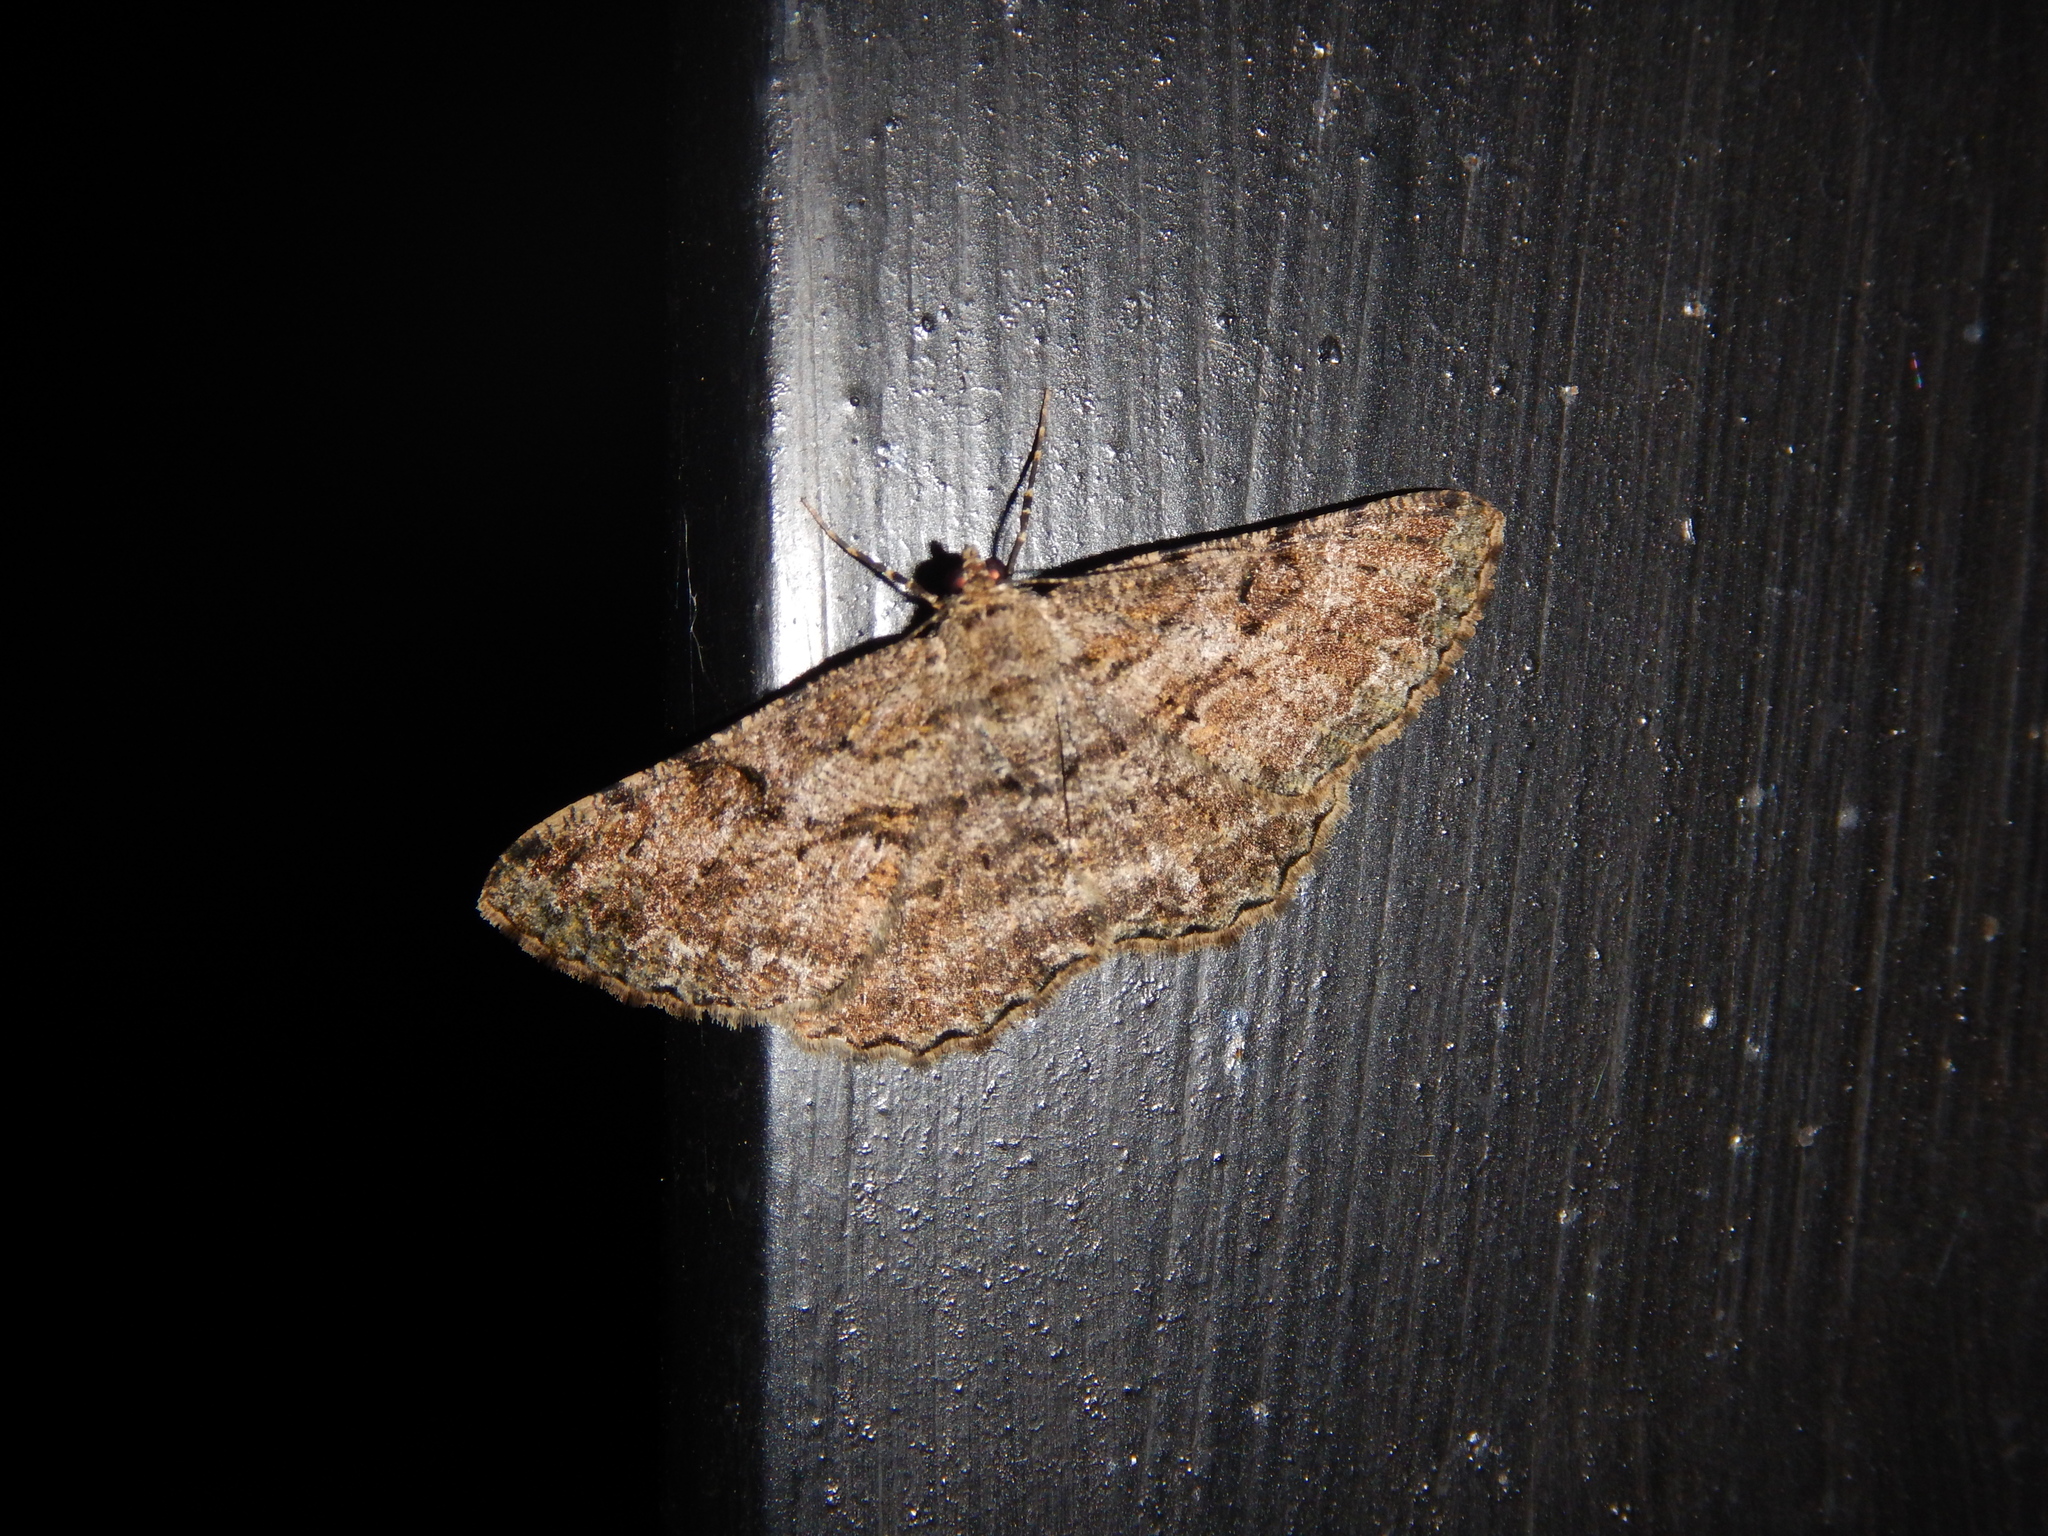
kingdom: Animalia
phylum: Arthropoda
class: Insecta
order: Lepidoptera
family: Geometridae
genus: Peribatodes
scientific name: Peribatodes rhomboidaria
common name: Willow beauty
